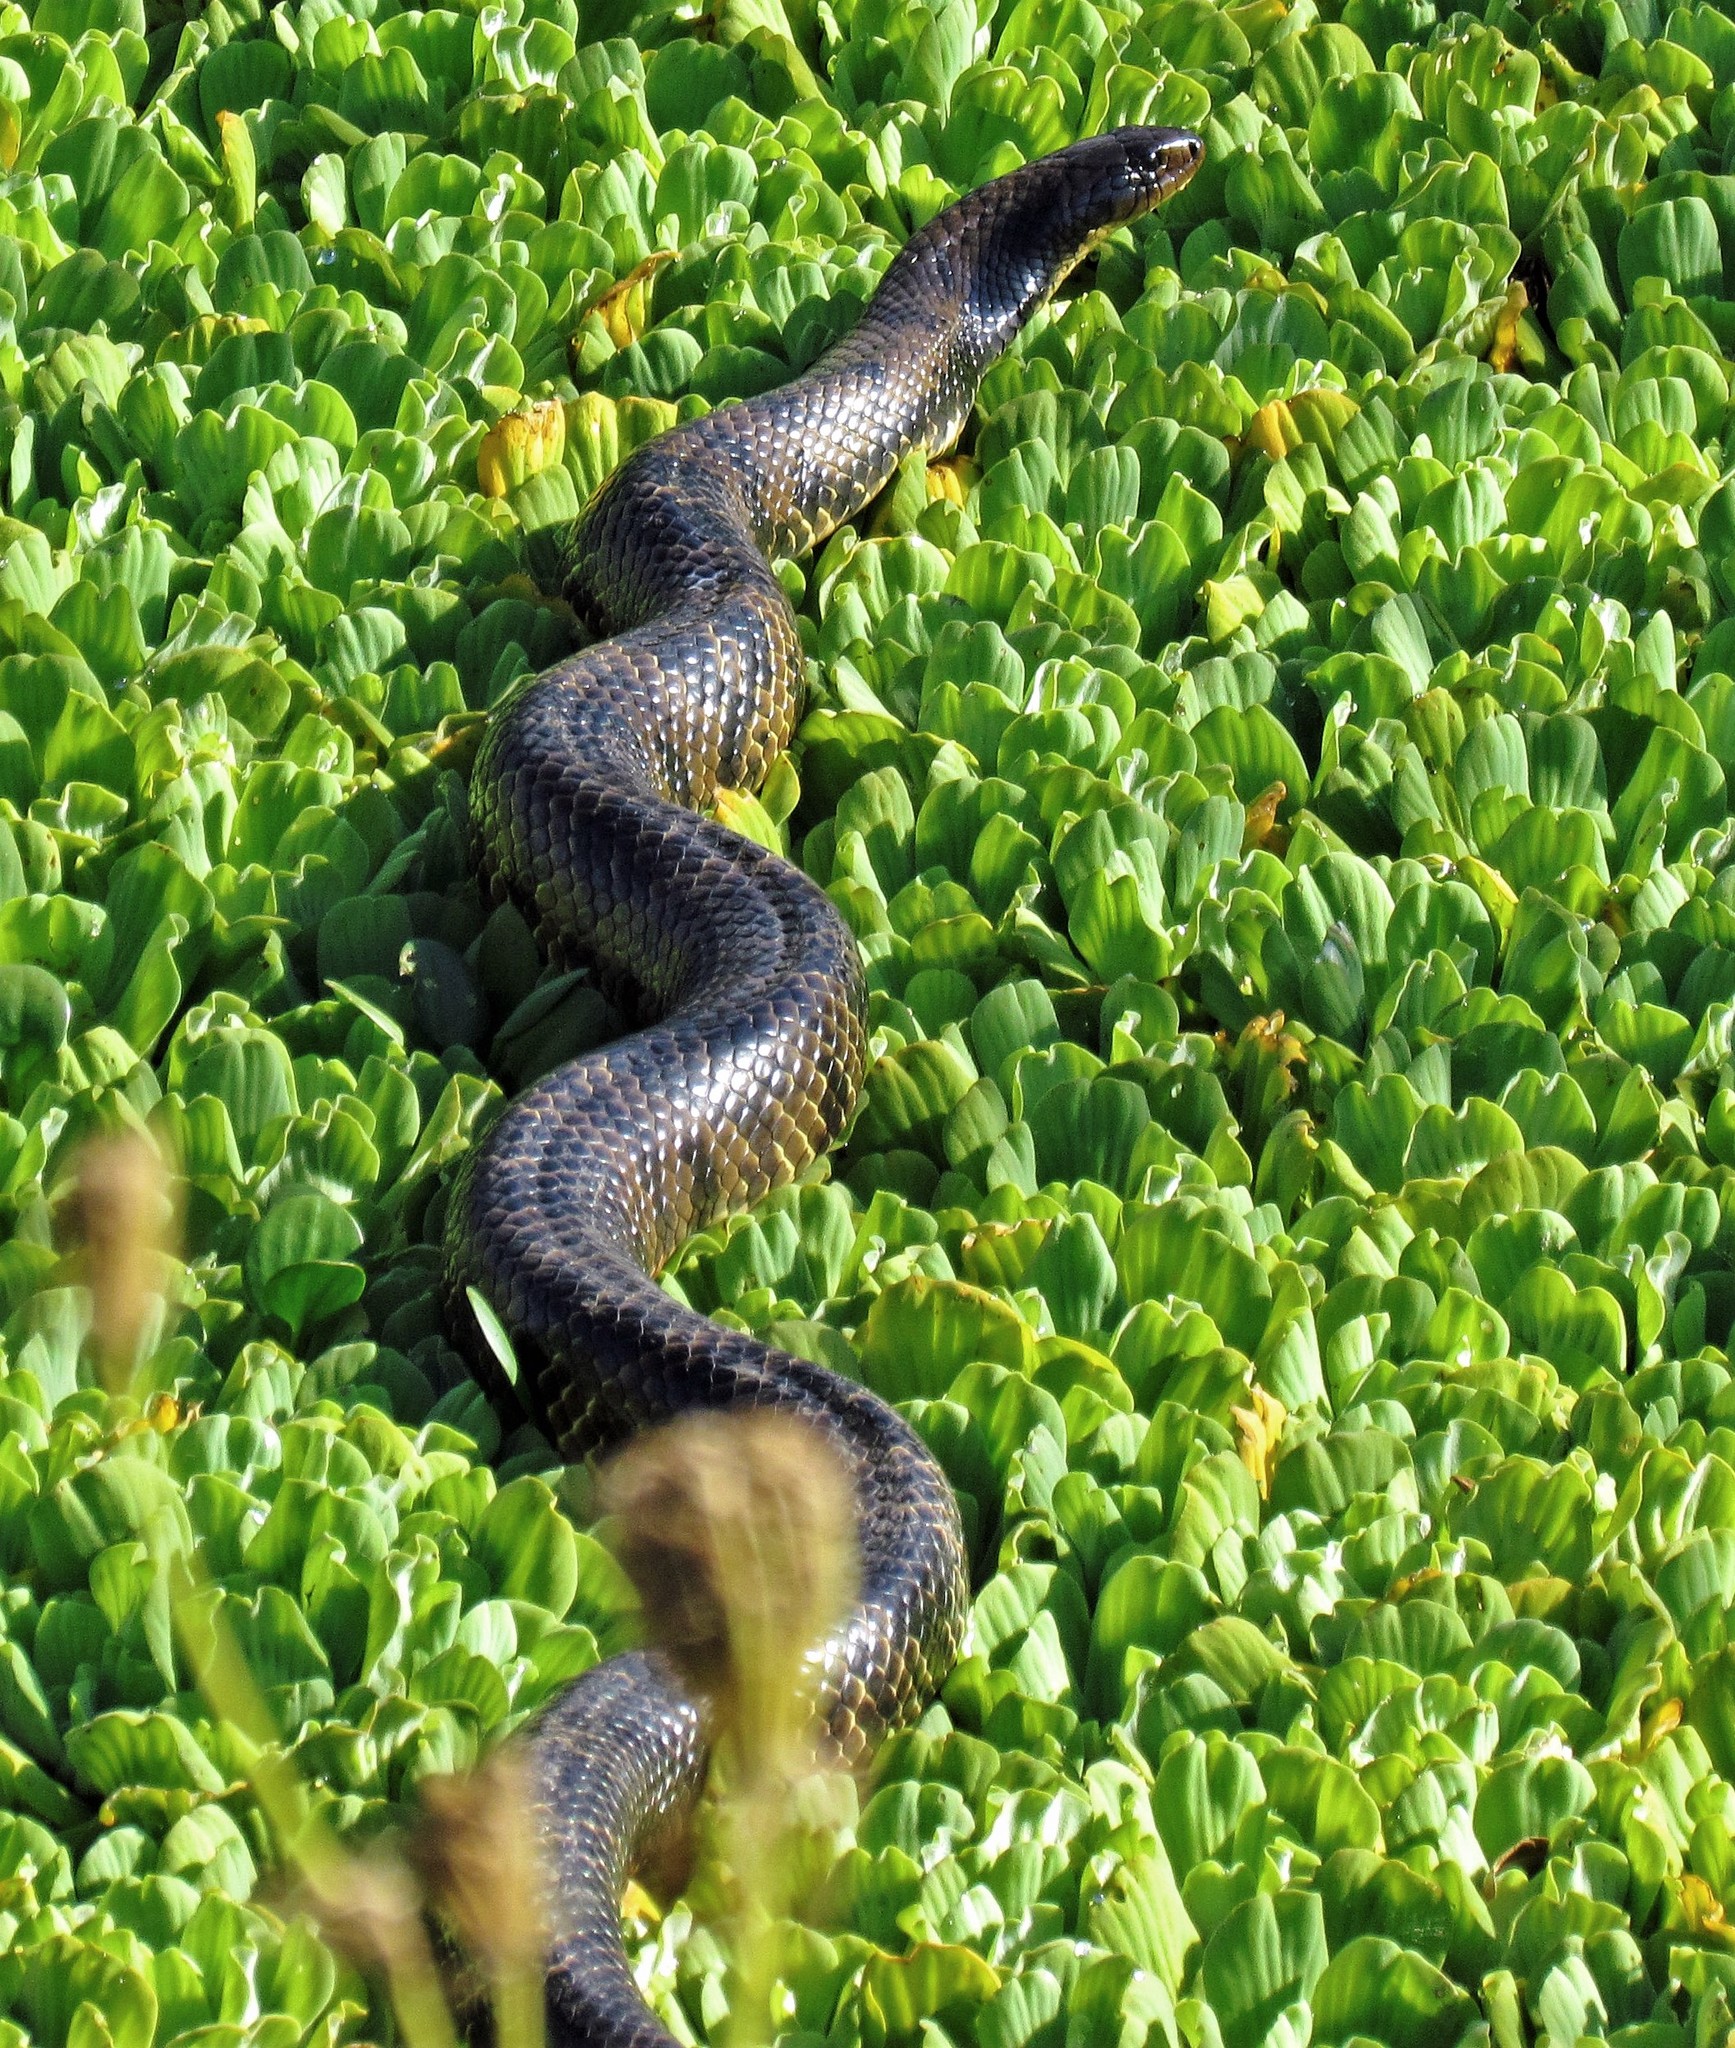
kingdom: Animalia
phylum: Chordata
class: Squamata
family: Colubridae
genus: Hydrodynastes
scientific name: Hydrodynastes gigas
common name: False water cobra
